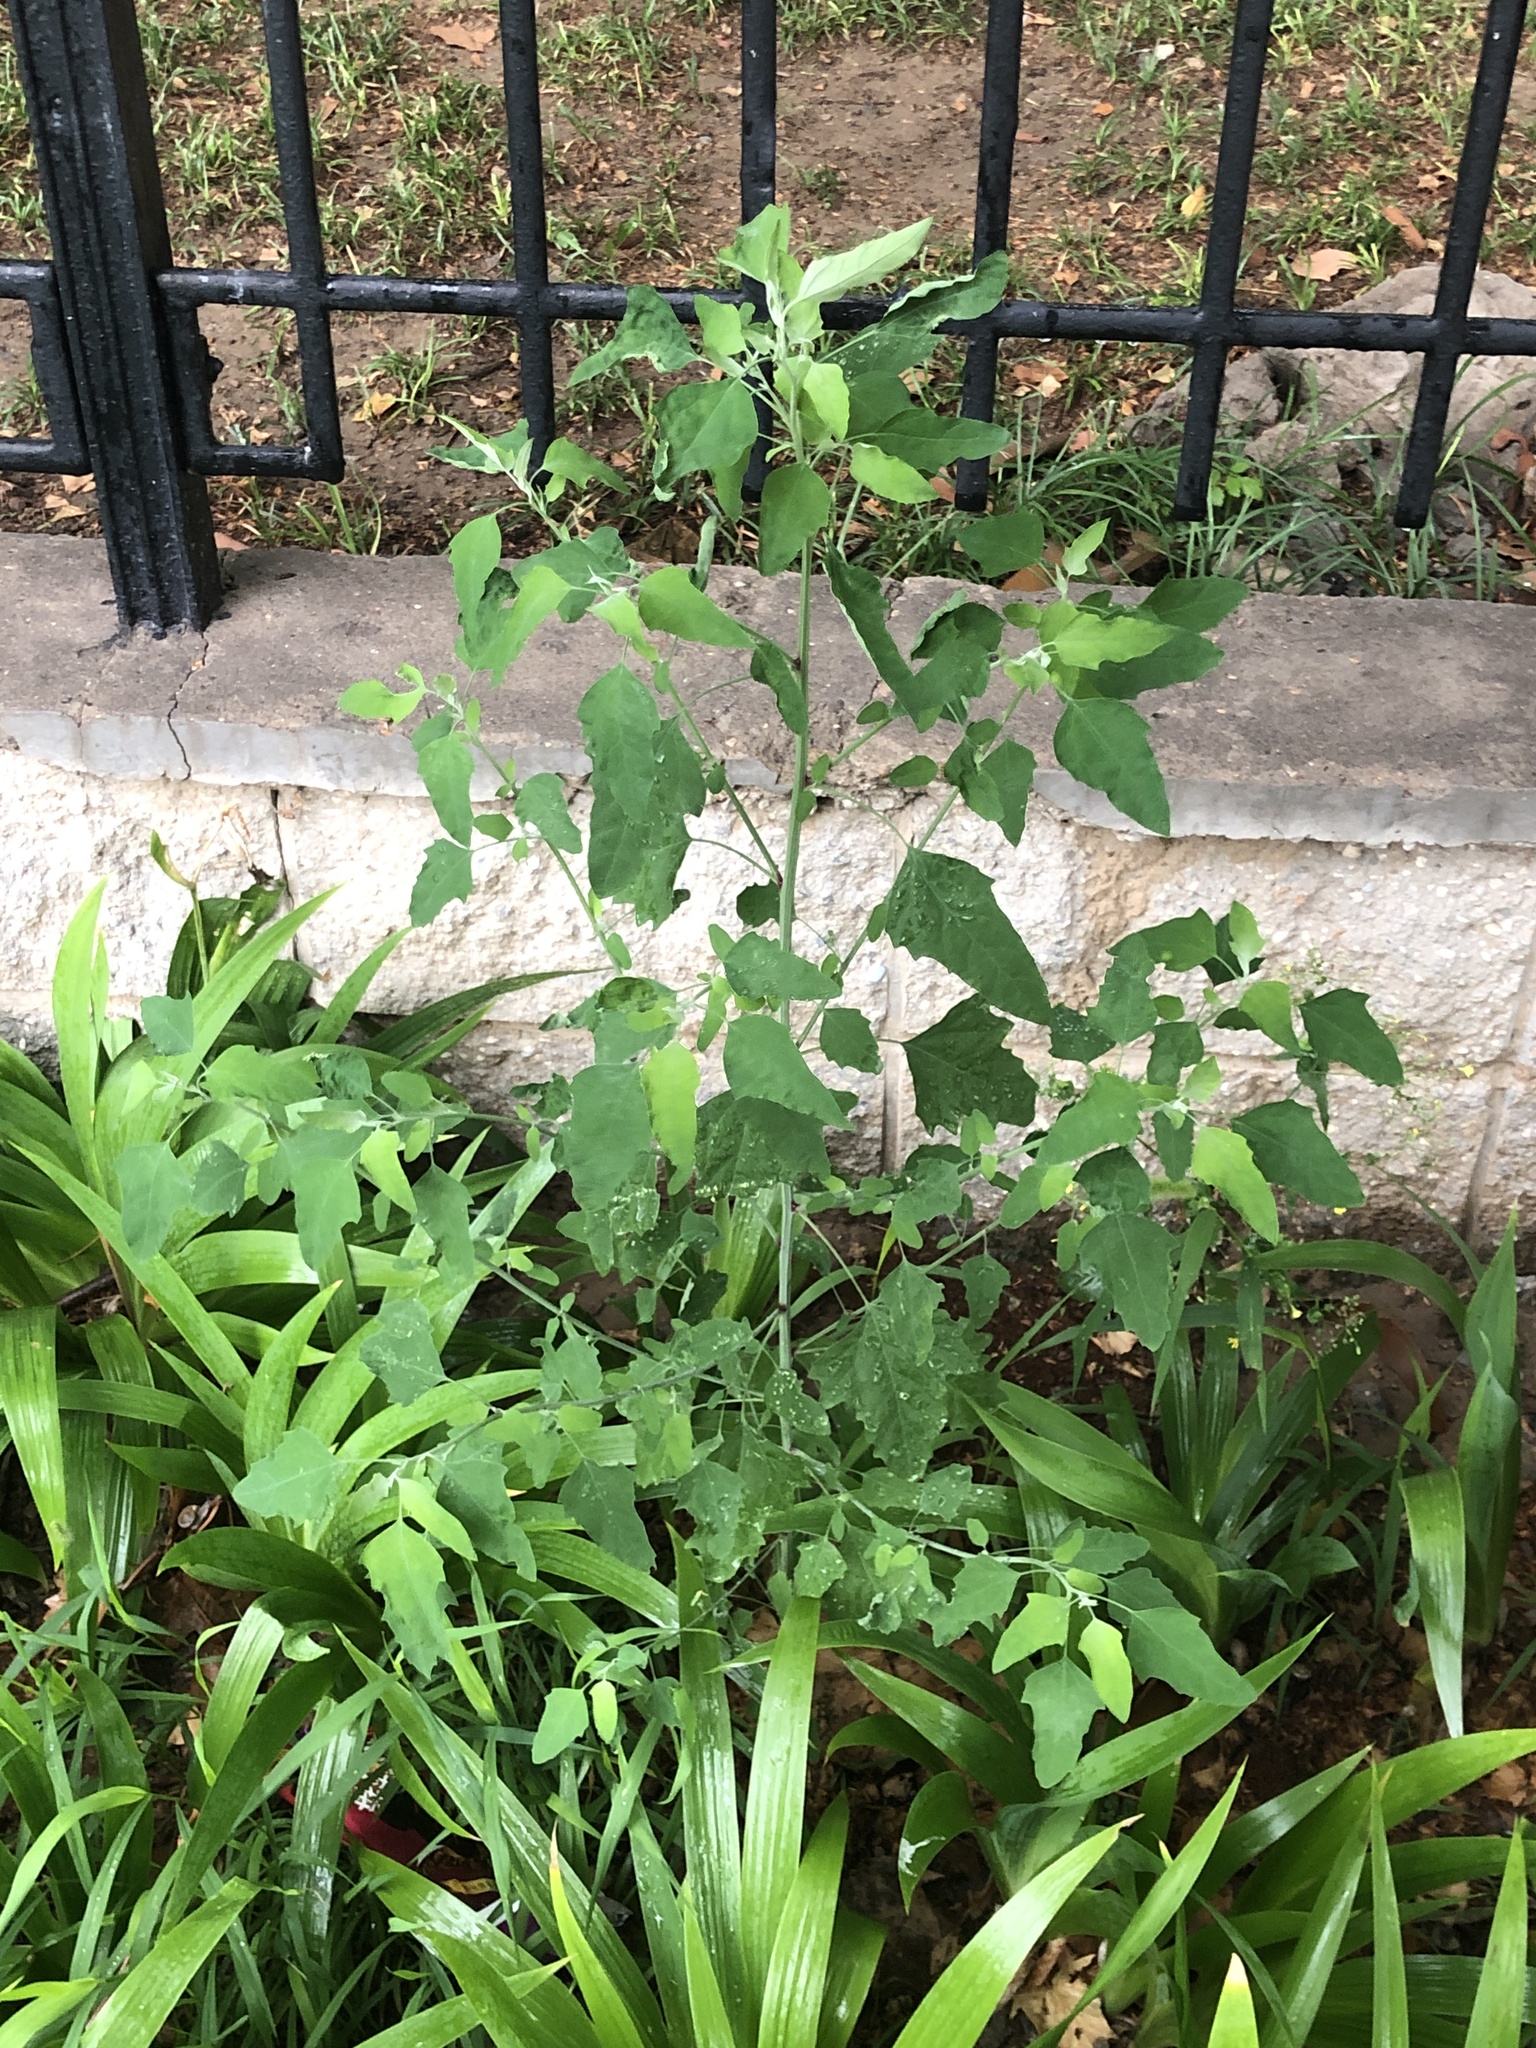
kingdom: Plantae
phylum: Tracheophyta
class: Magnoliopsida
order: Caryophyllales
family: Amaranthaceae
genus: Chenopodium
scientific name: Chenopodium album
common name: Fat-hen
